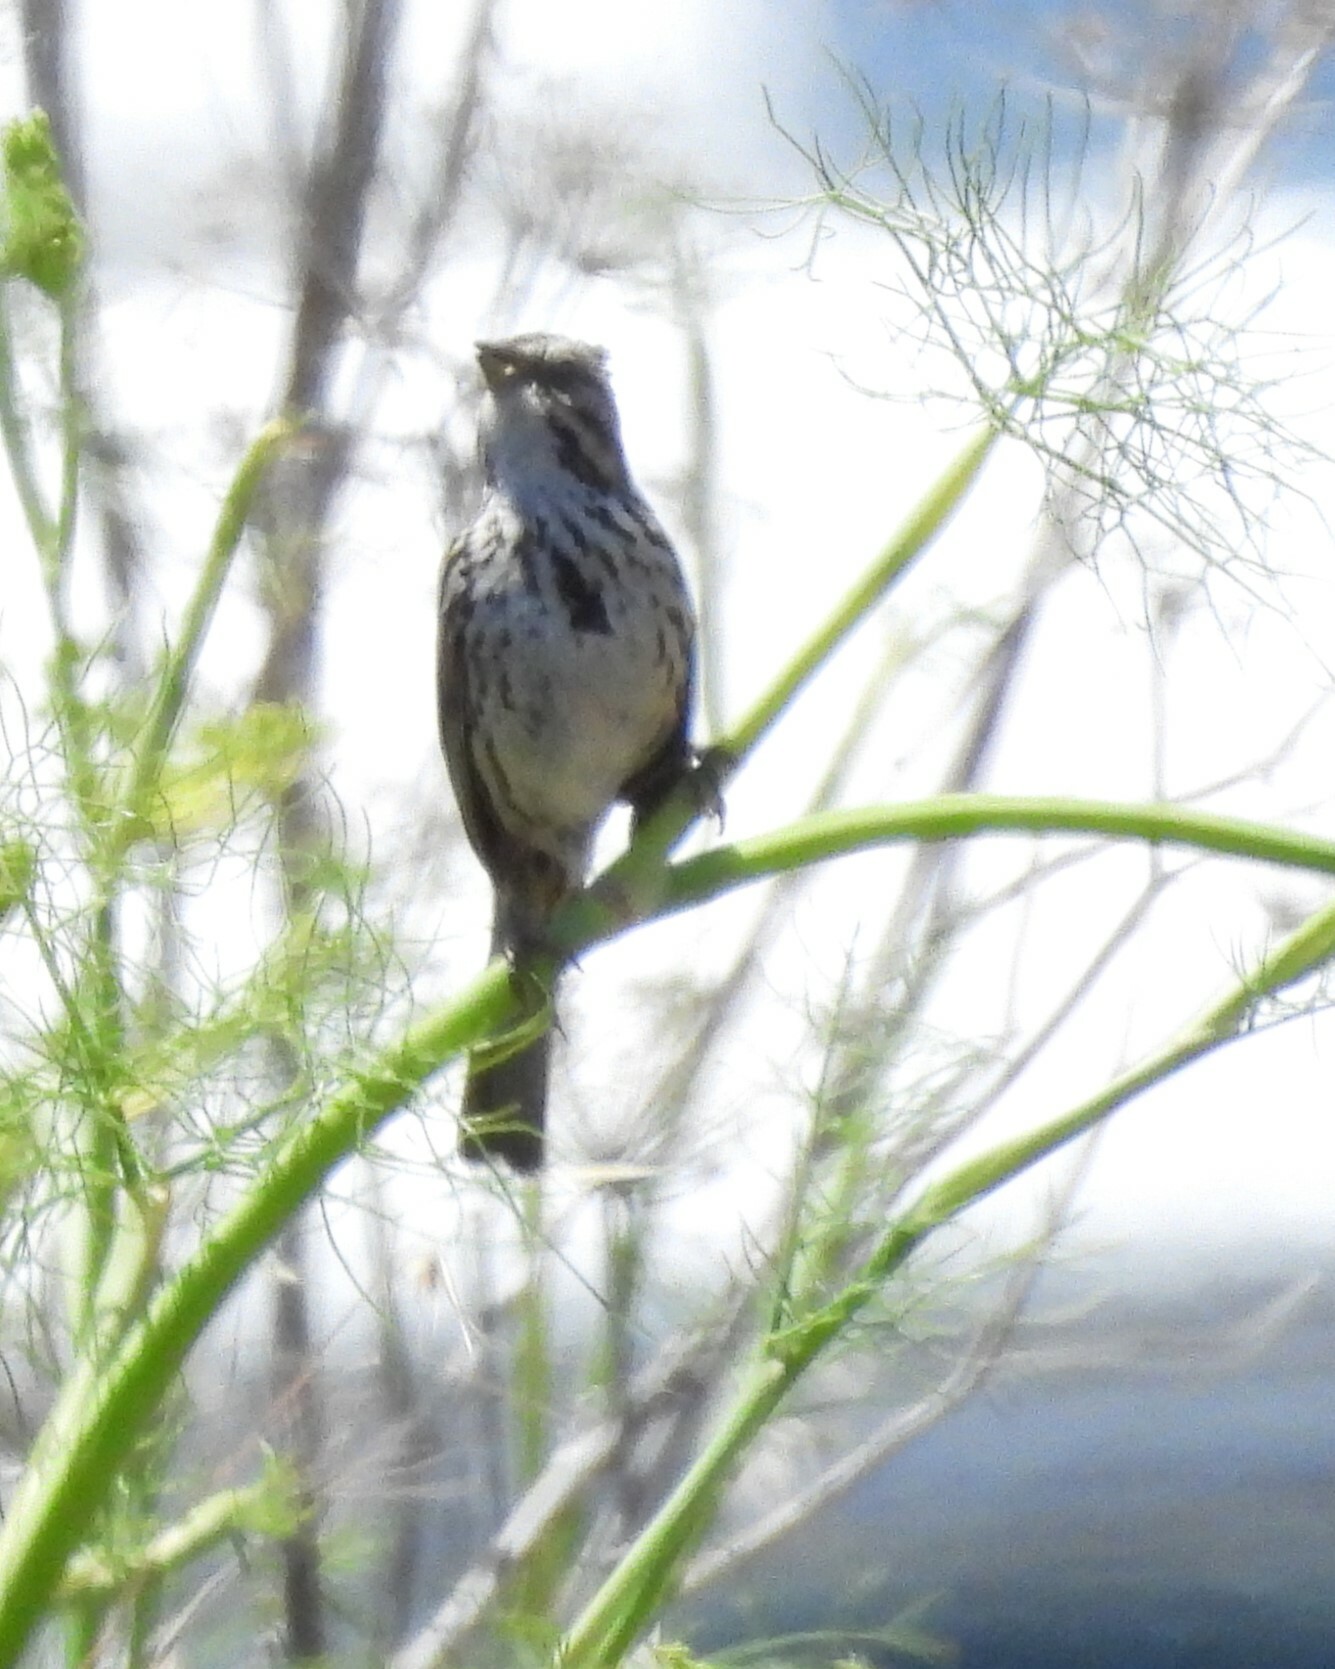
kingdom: Animalia
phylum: Chordata
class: Aves
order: Passeriformes
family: Passerellidae
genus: Melospiza
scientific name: Melospiza melodia
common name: Song sparrow
